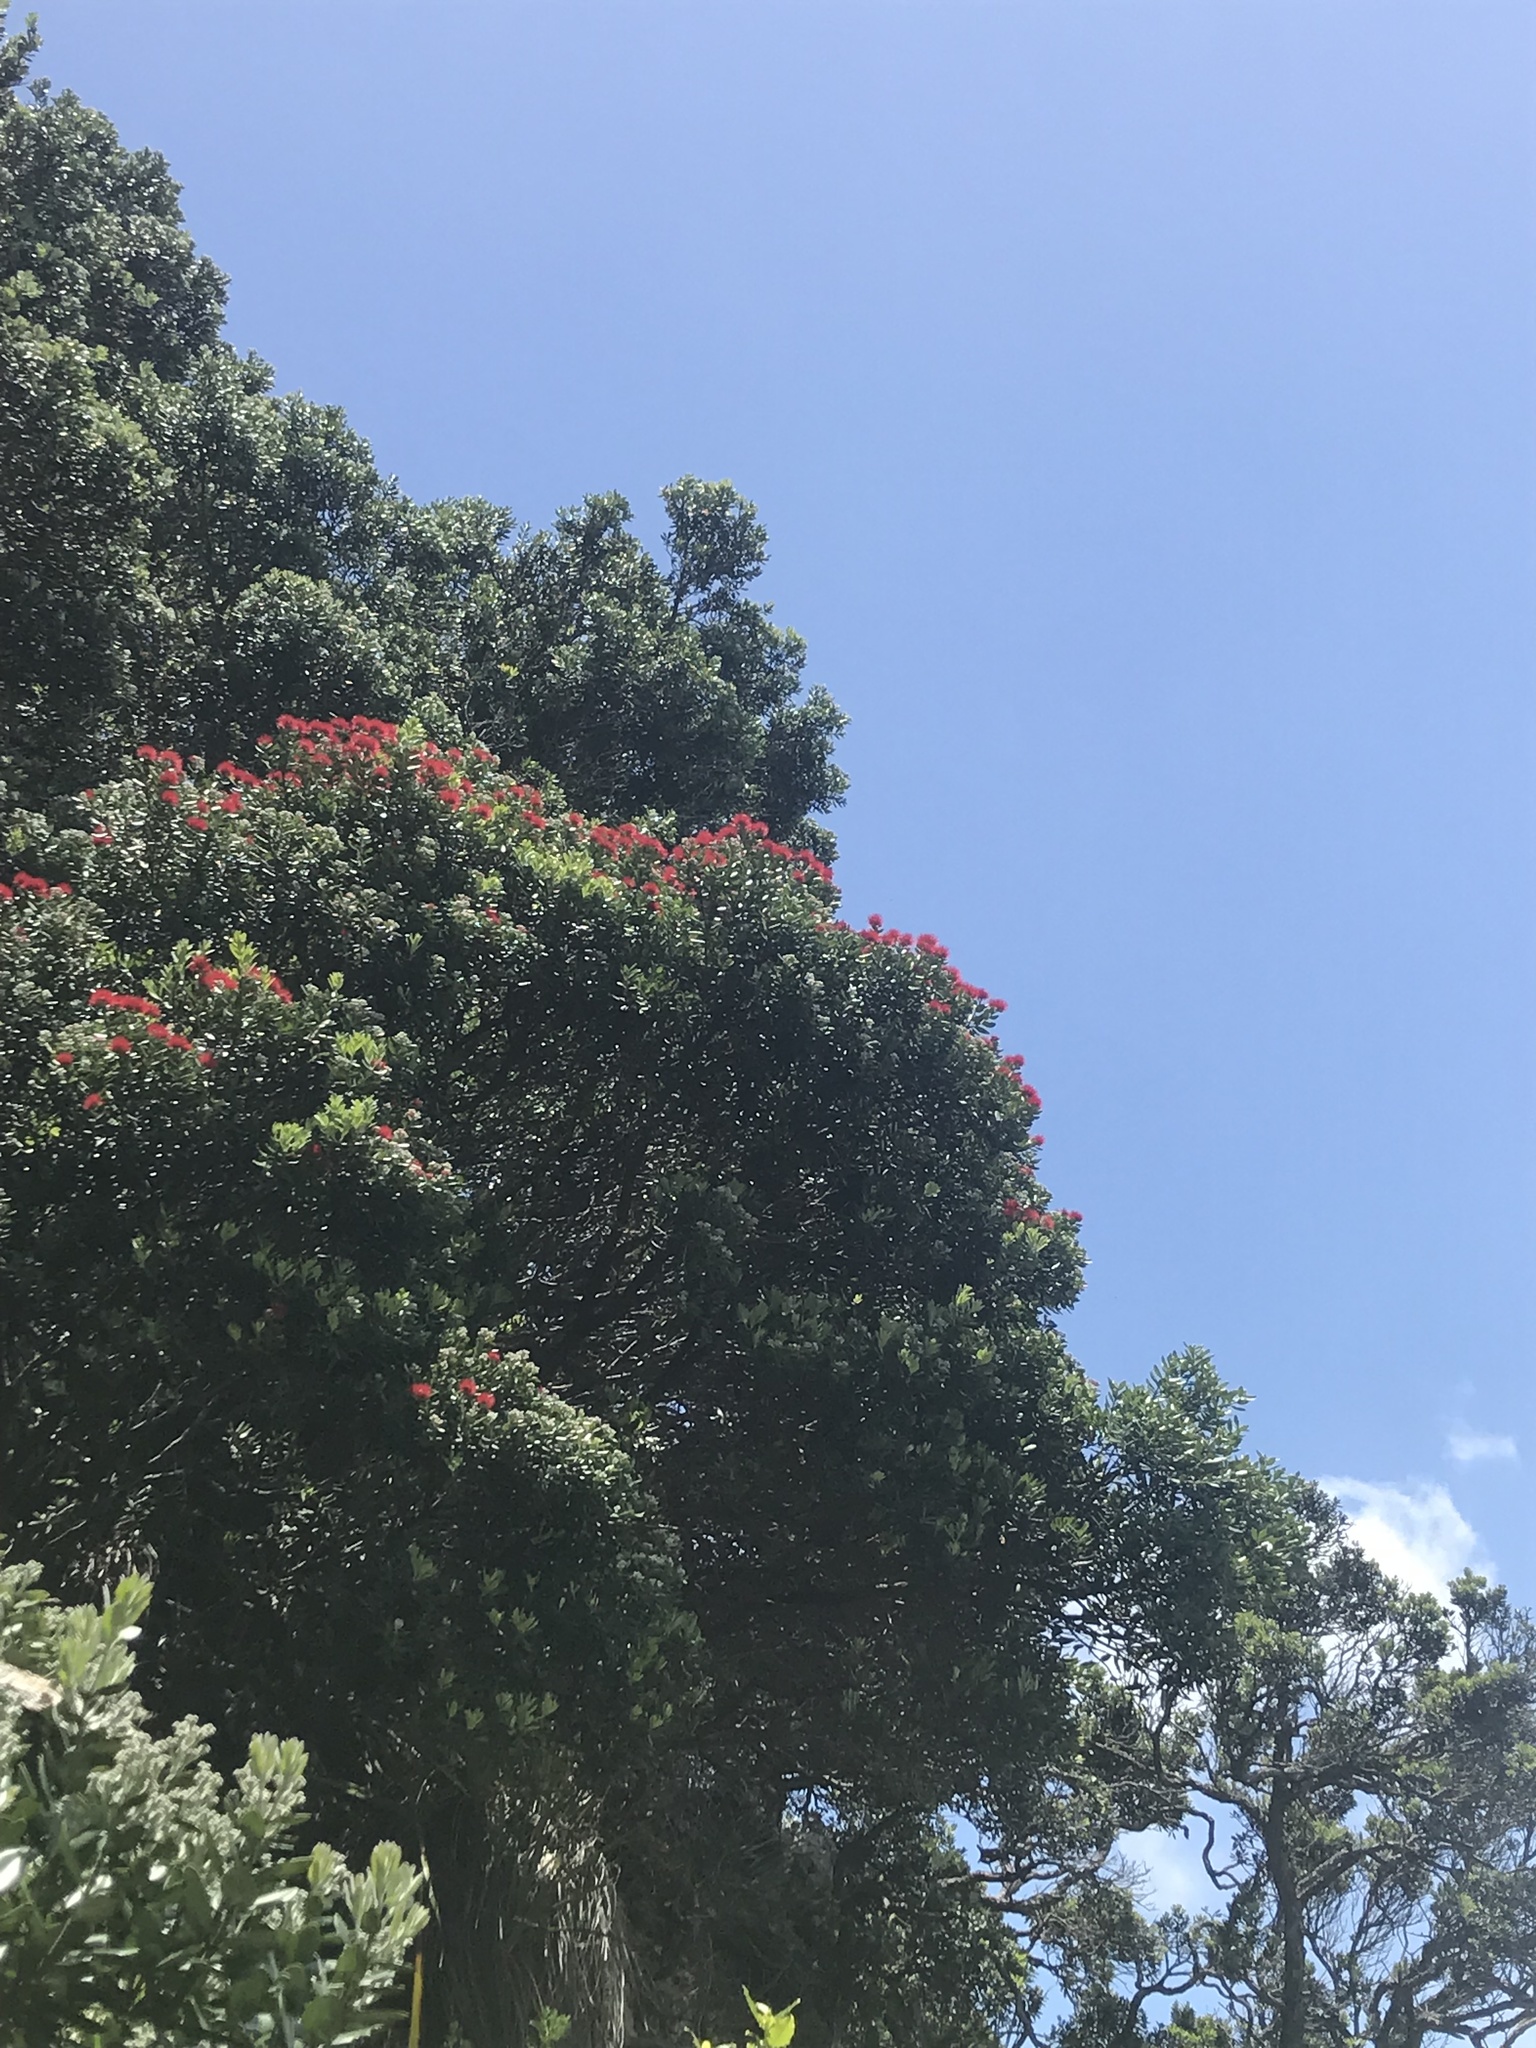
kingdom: Plantae
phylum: Tracheophyta
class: Magnoliopsida
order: Myrtales
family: Myrtaceae
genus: Metrosideros
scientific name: Metrosideros excelsa
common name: New zealand christmastree
